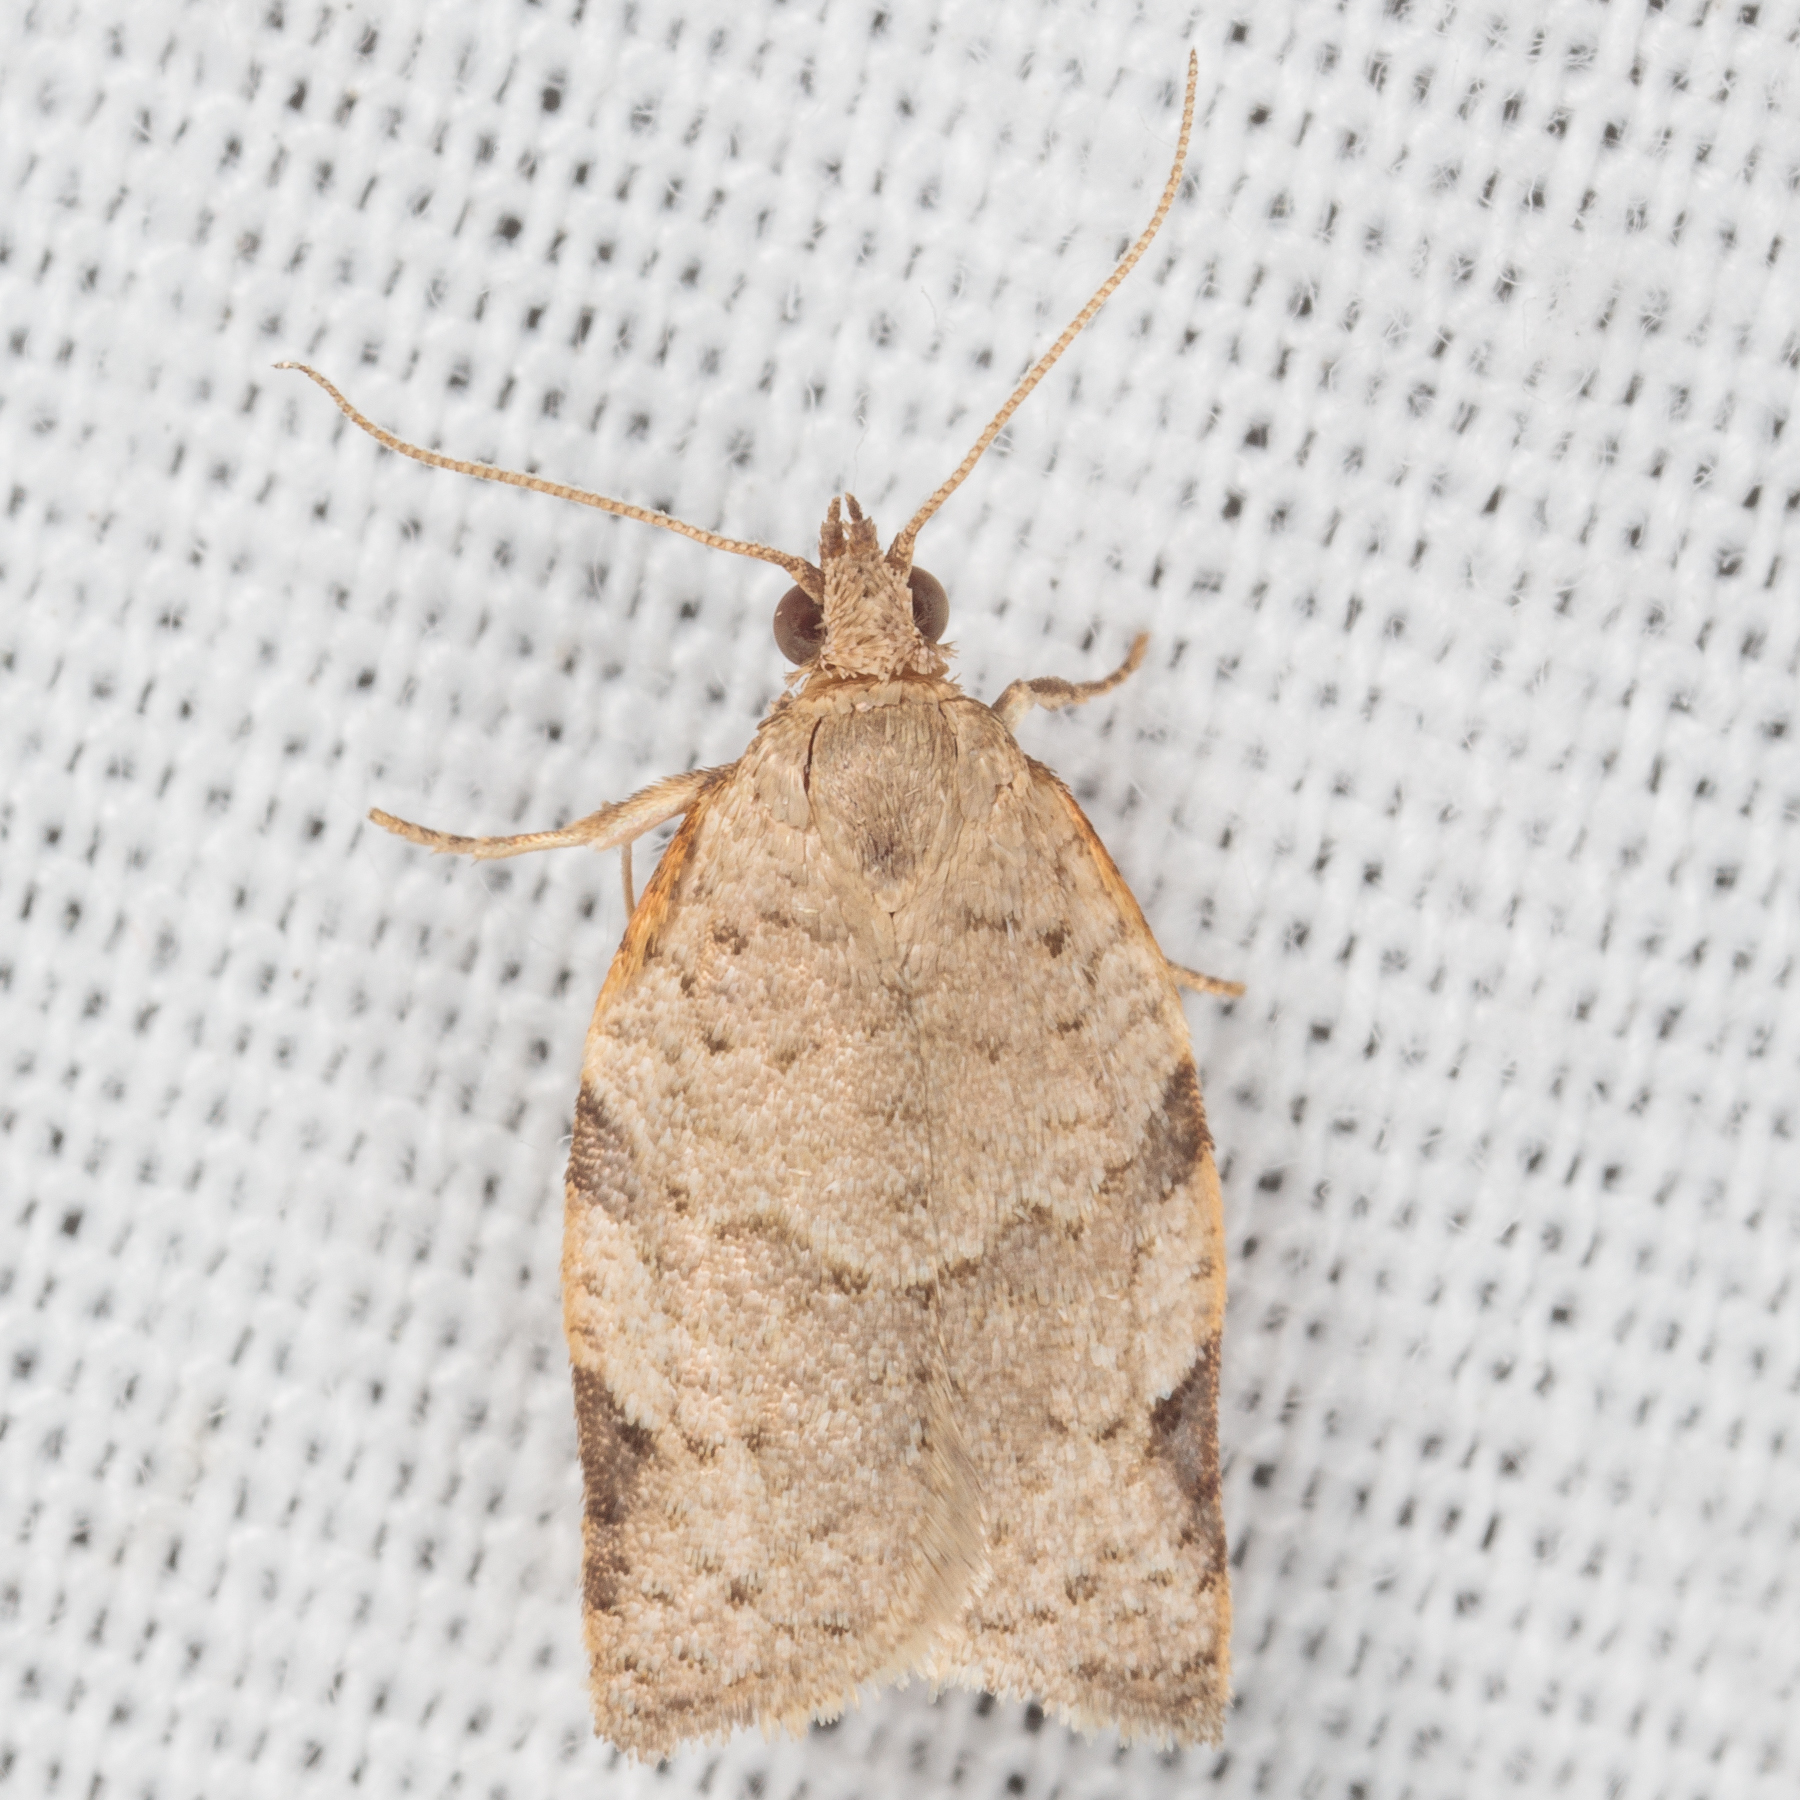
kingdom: Animalia
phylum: Arthropoda
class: Insecta
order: Lepidoptera
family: Tortricidae
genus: Clepsis
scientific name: Clepsis virescana
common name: Greenish apple moth
